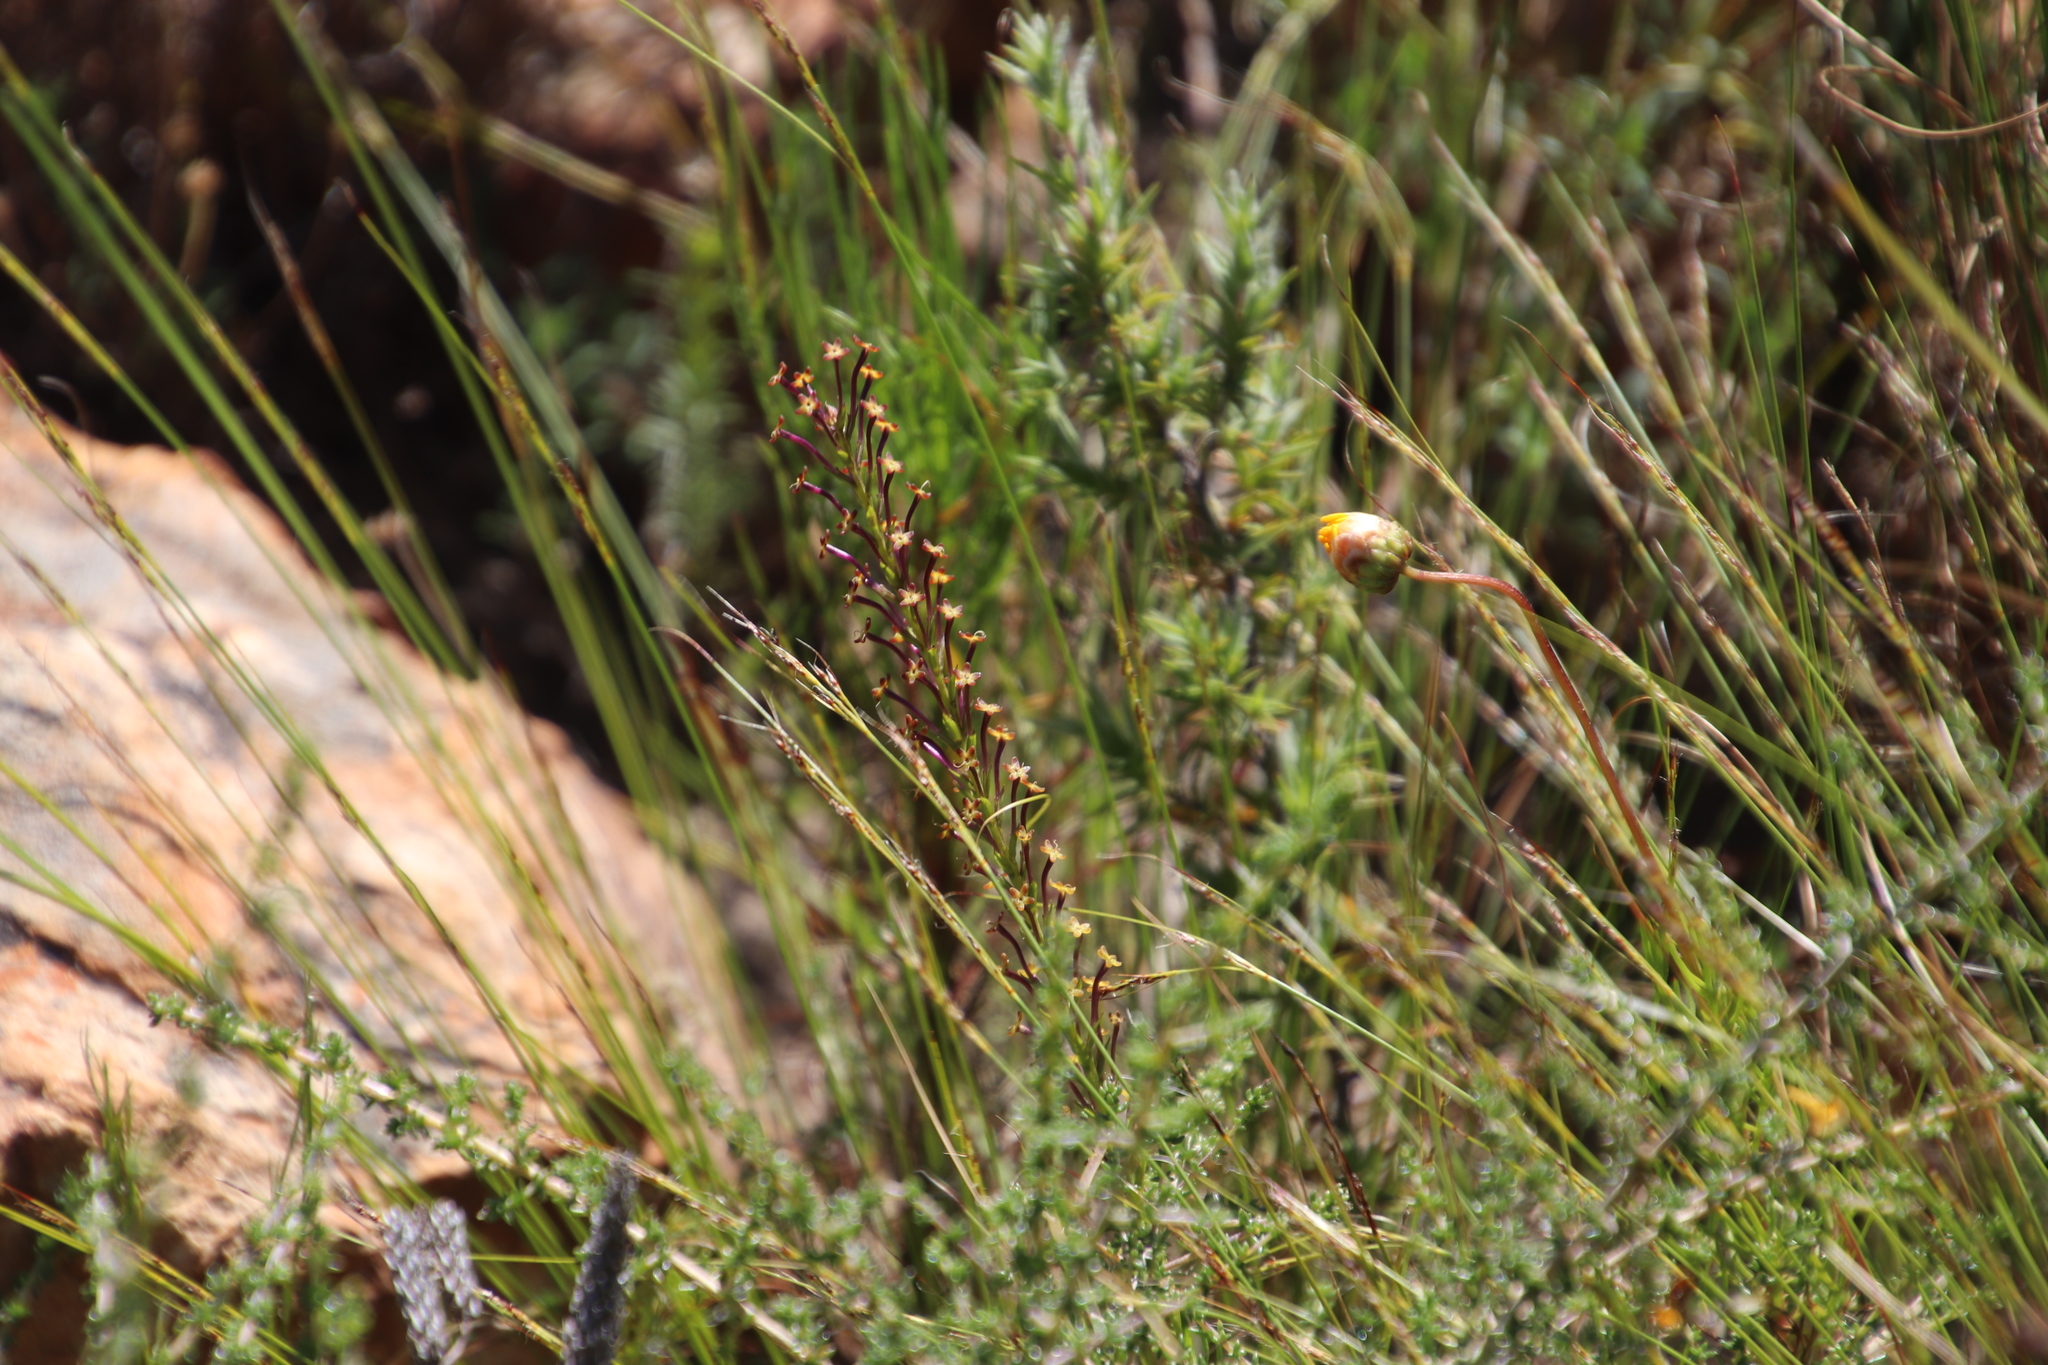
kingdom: Plantae
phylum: Tracheophyta
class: Magnoliopsida
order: Lamiales
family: Scrophulariaceae
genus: Microdon
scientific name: Microdon dubius
